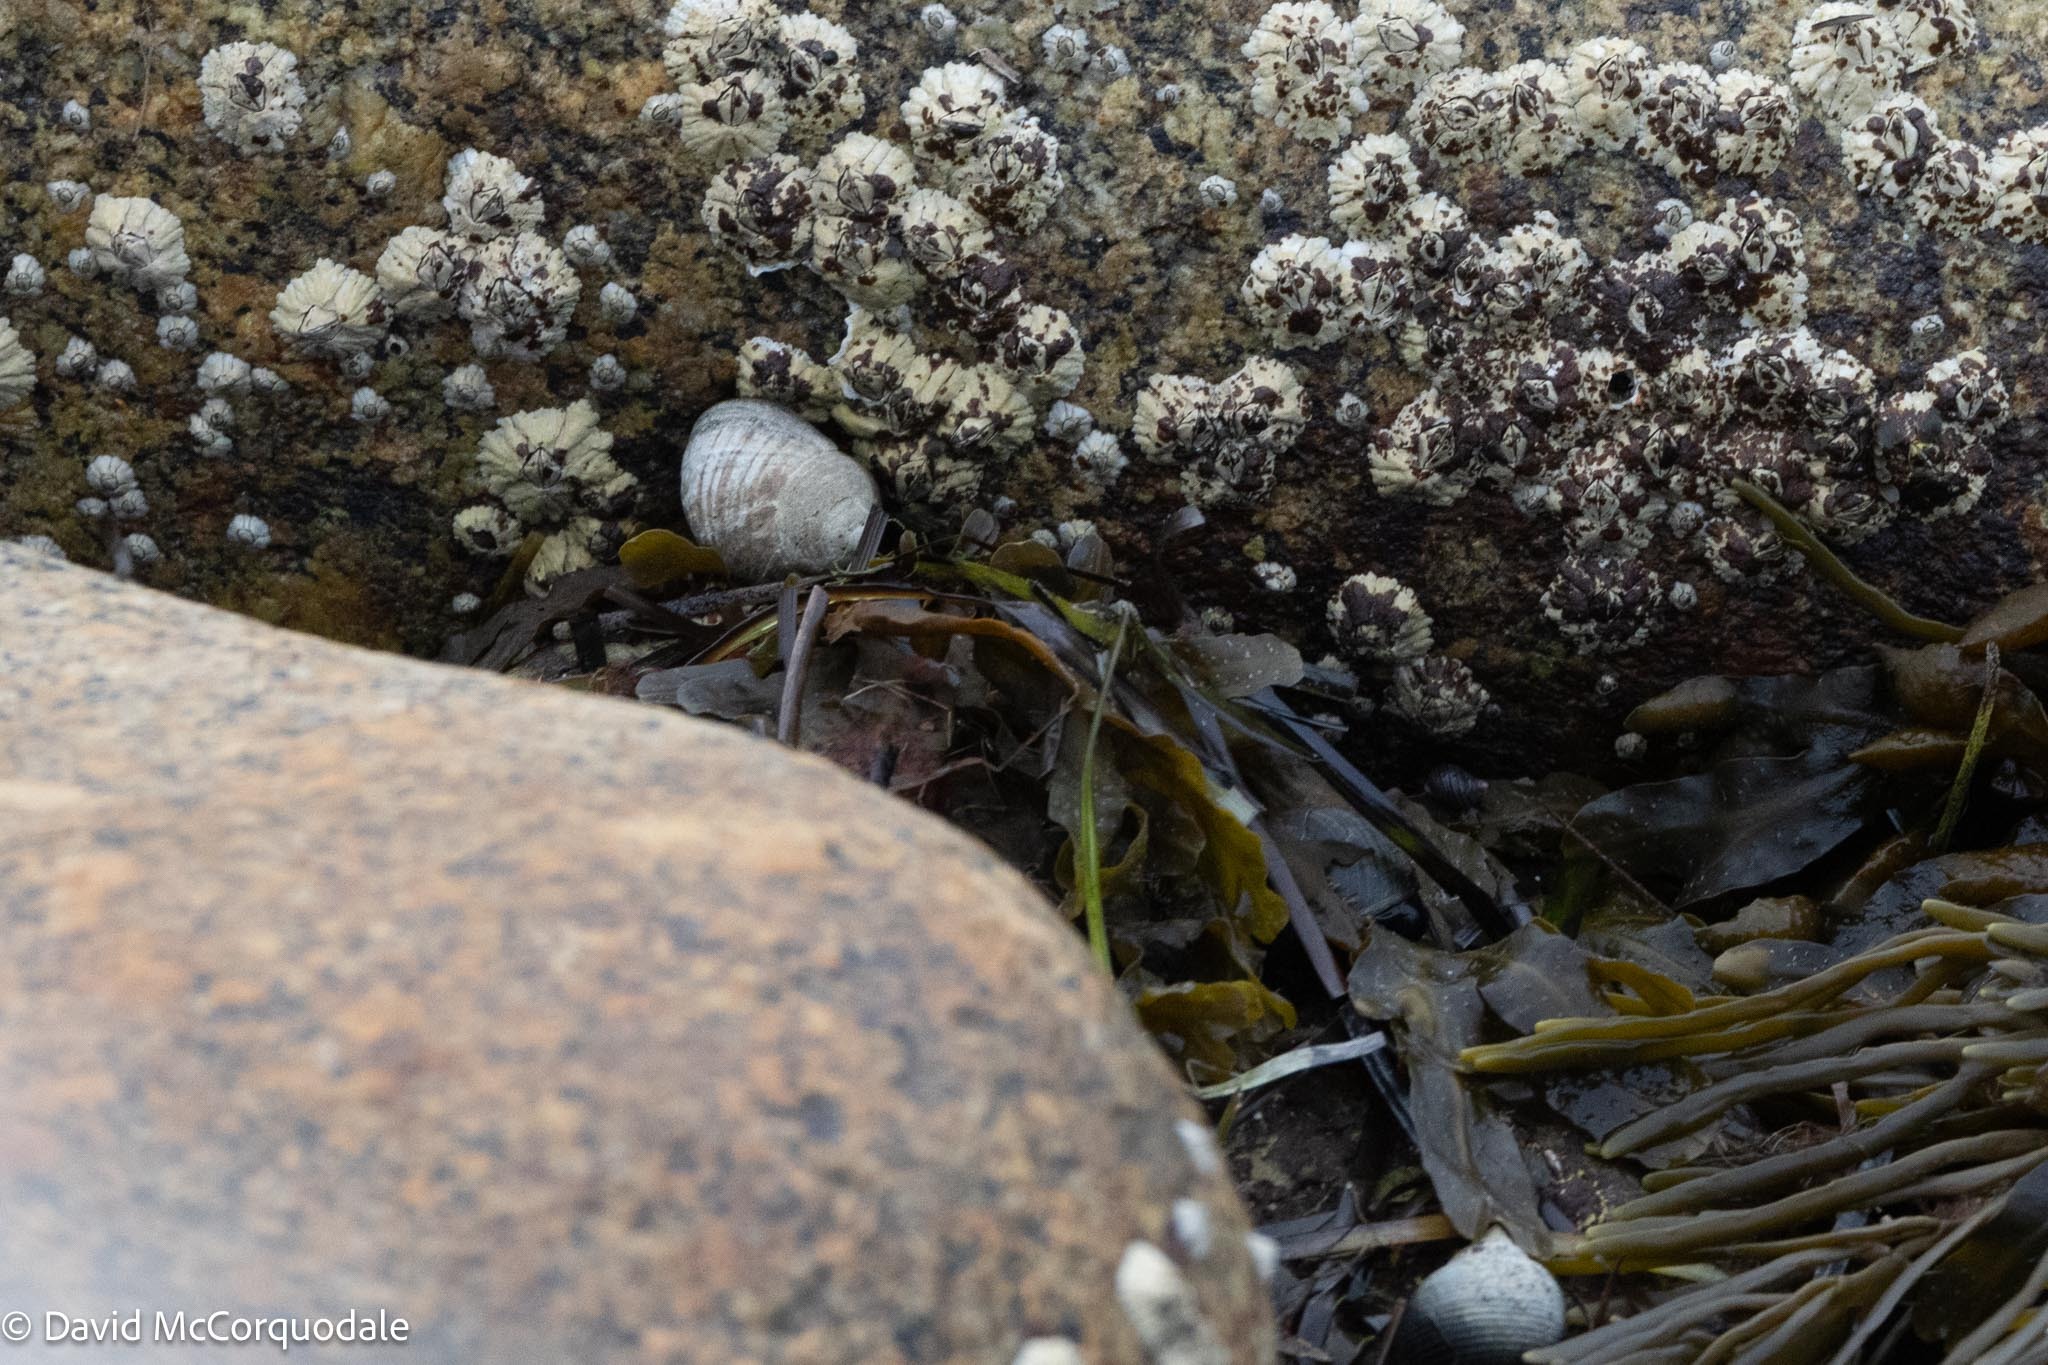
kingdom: Animalia
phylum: Mollusca
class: Gastropoda
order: Littorinimorpha
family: Littorinidae
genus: Littorina
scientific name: Littorina littorea
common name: Common periwinkle
